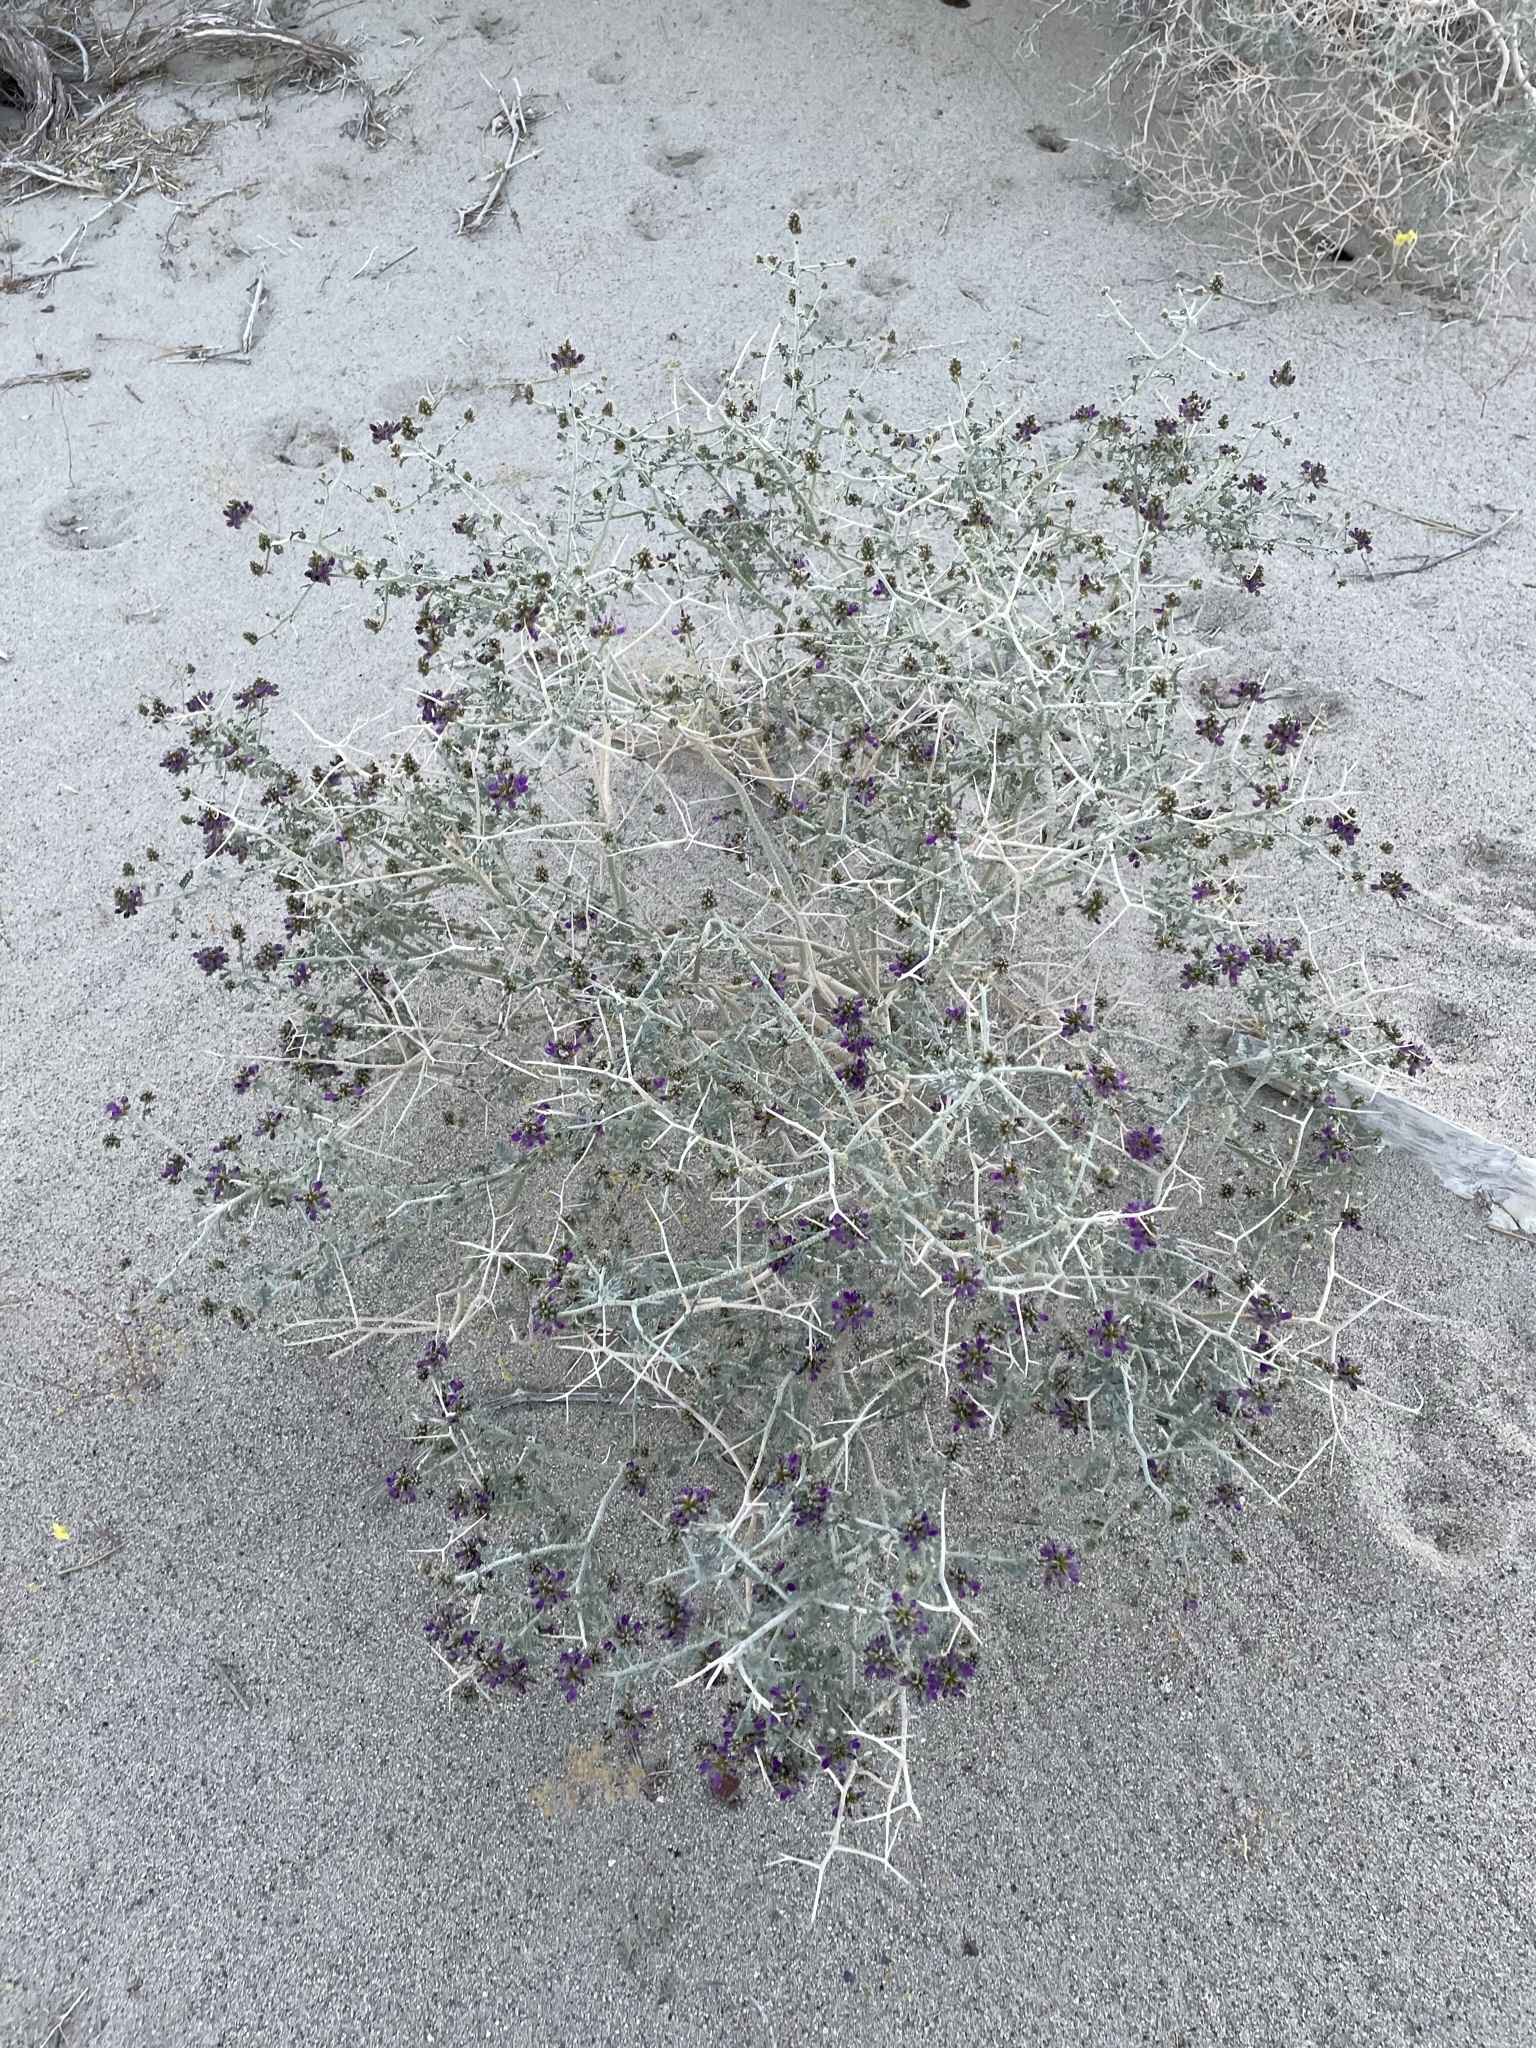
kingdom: Plantae
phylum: Tracheophyta
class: Magnoliopsida
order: Fabales
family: Fabaceae
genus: Psorothamnus
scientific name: Psorothamnus polydenius
